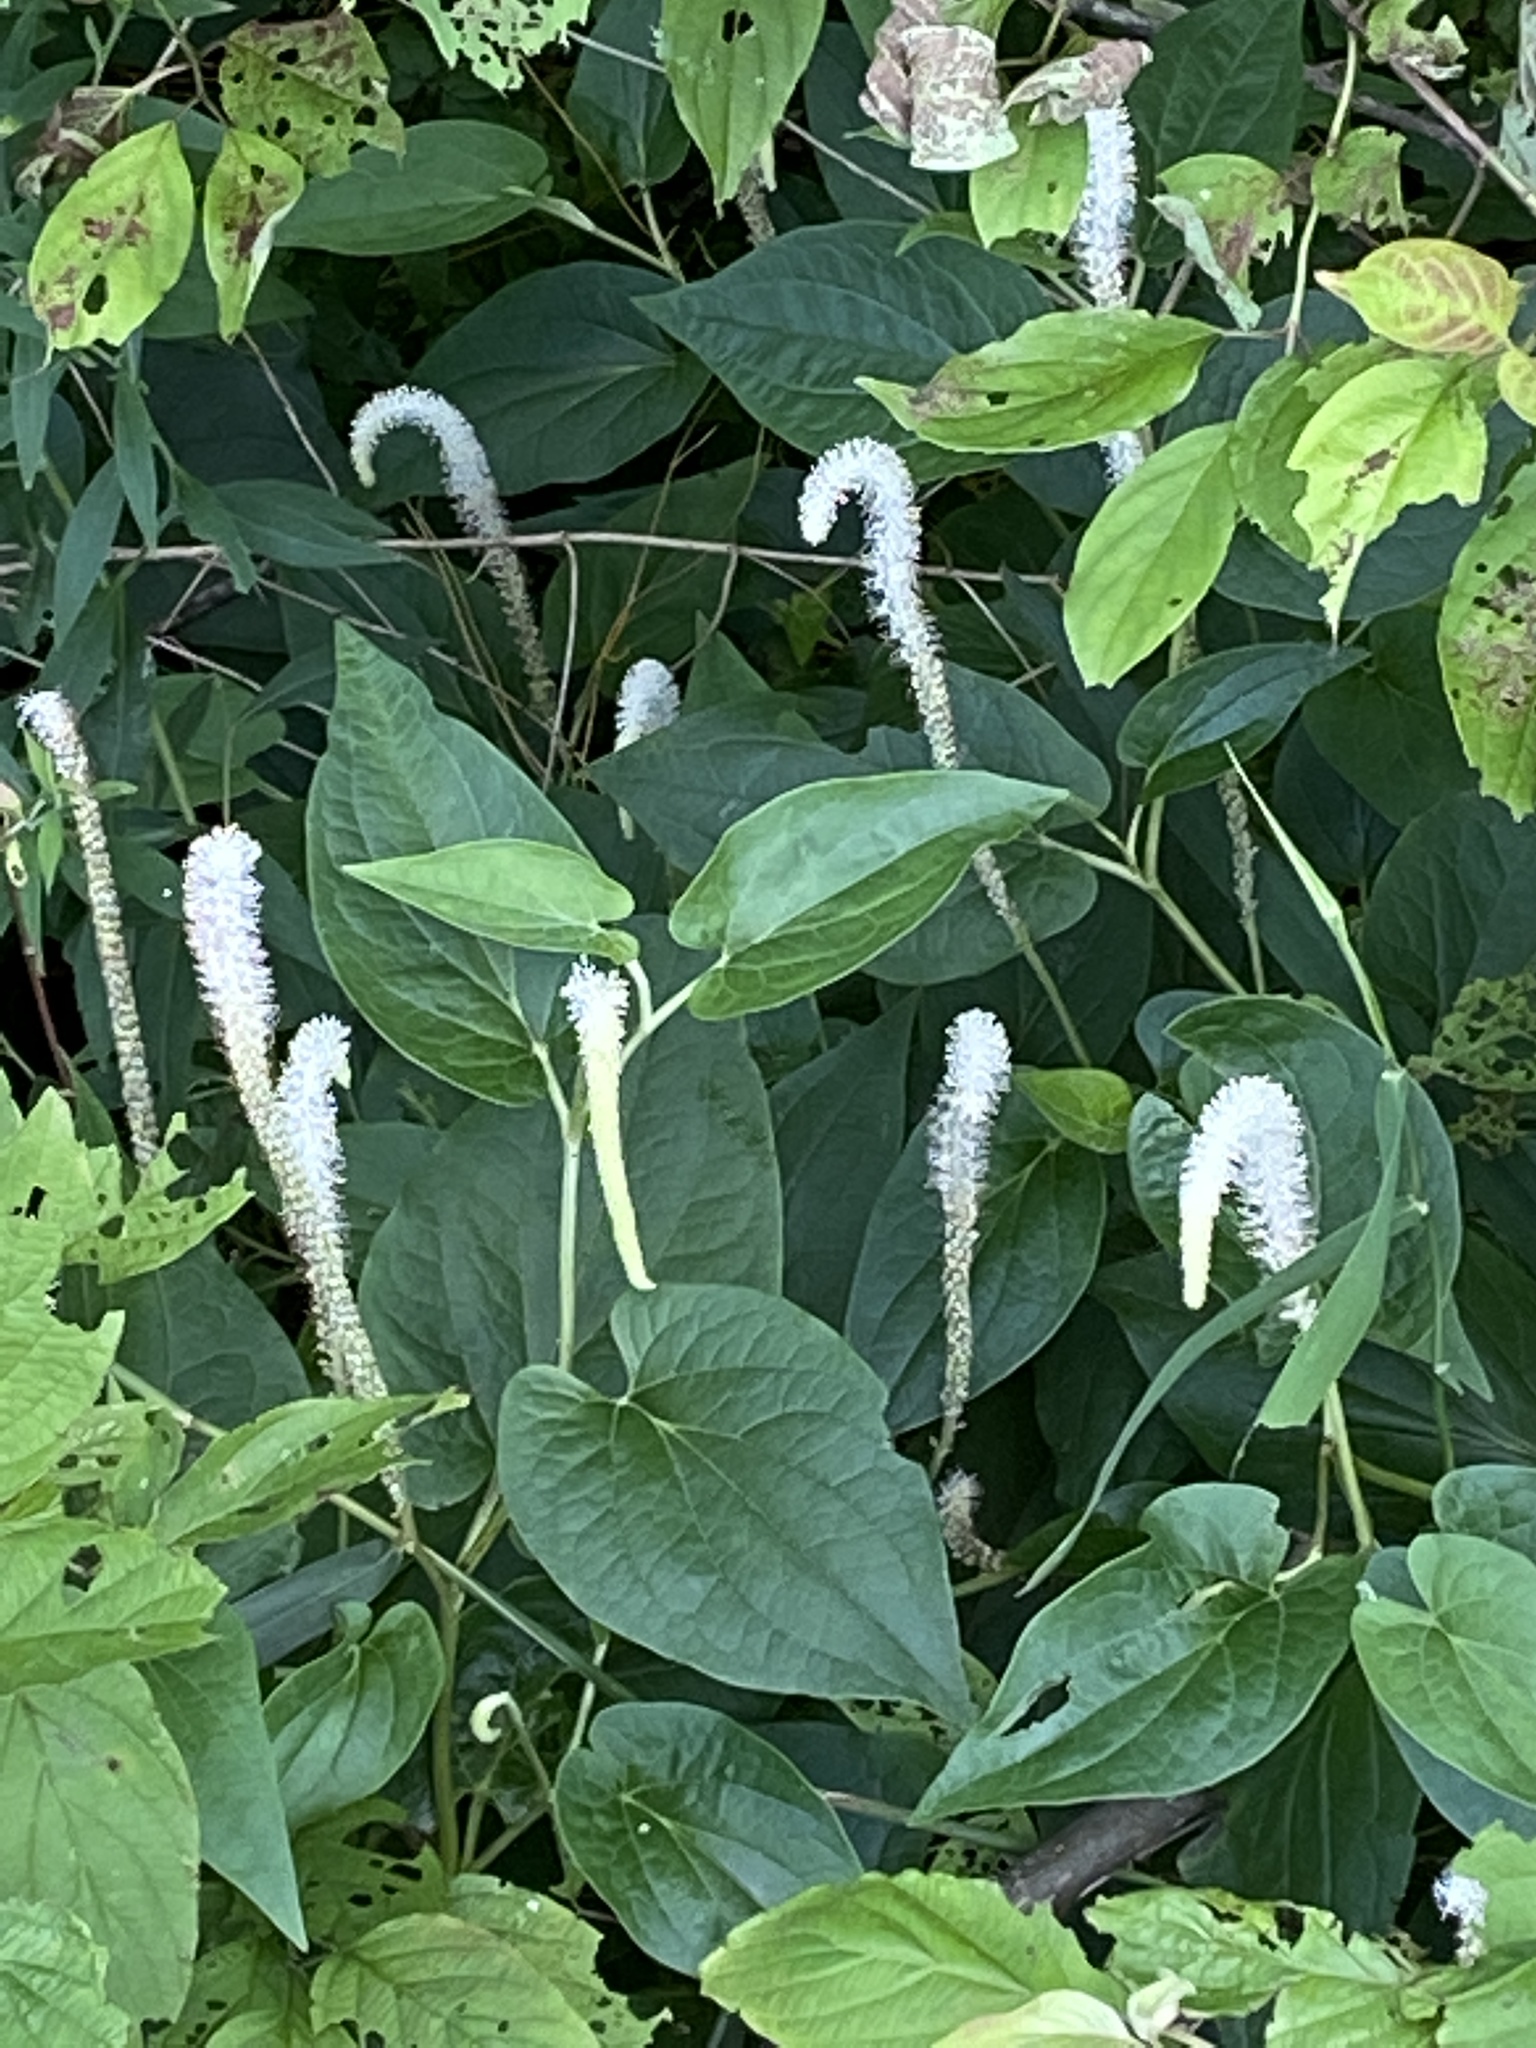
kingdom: Plantae
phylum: Tracheophyta
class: Magnoliopsida
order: Piperales
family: Saururaceae
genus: Saururus
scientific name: Saururus cernuus
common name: Lizard's-tail
